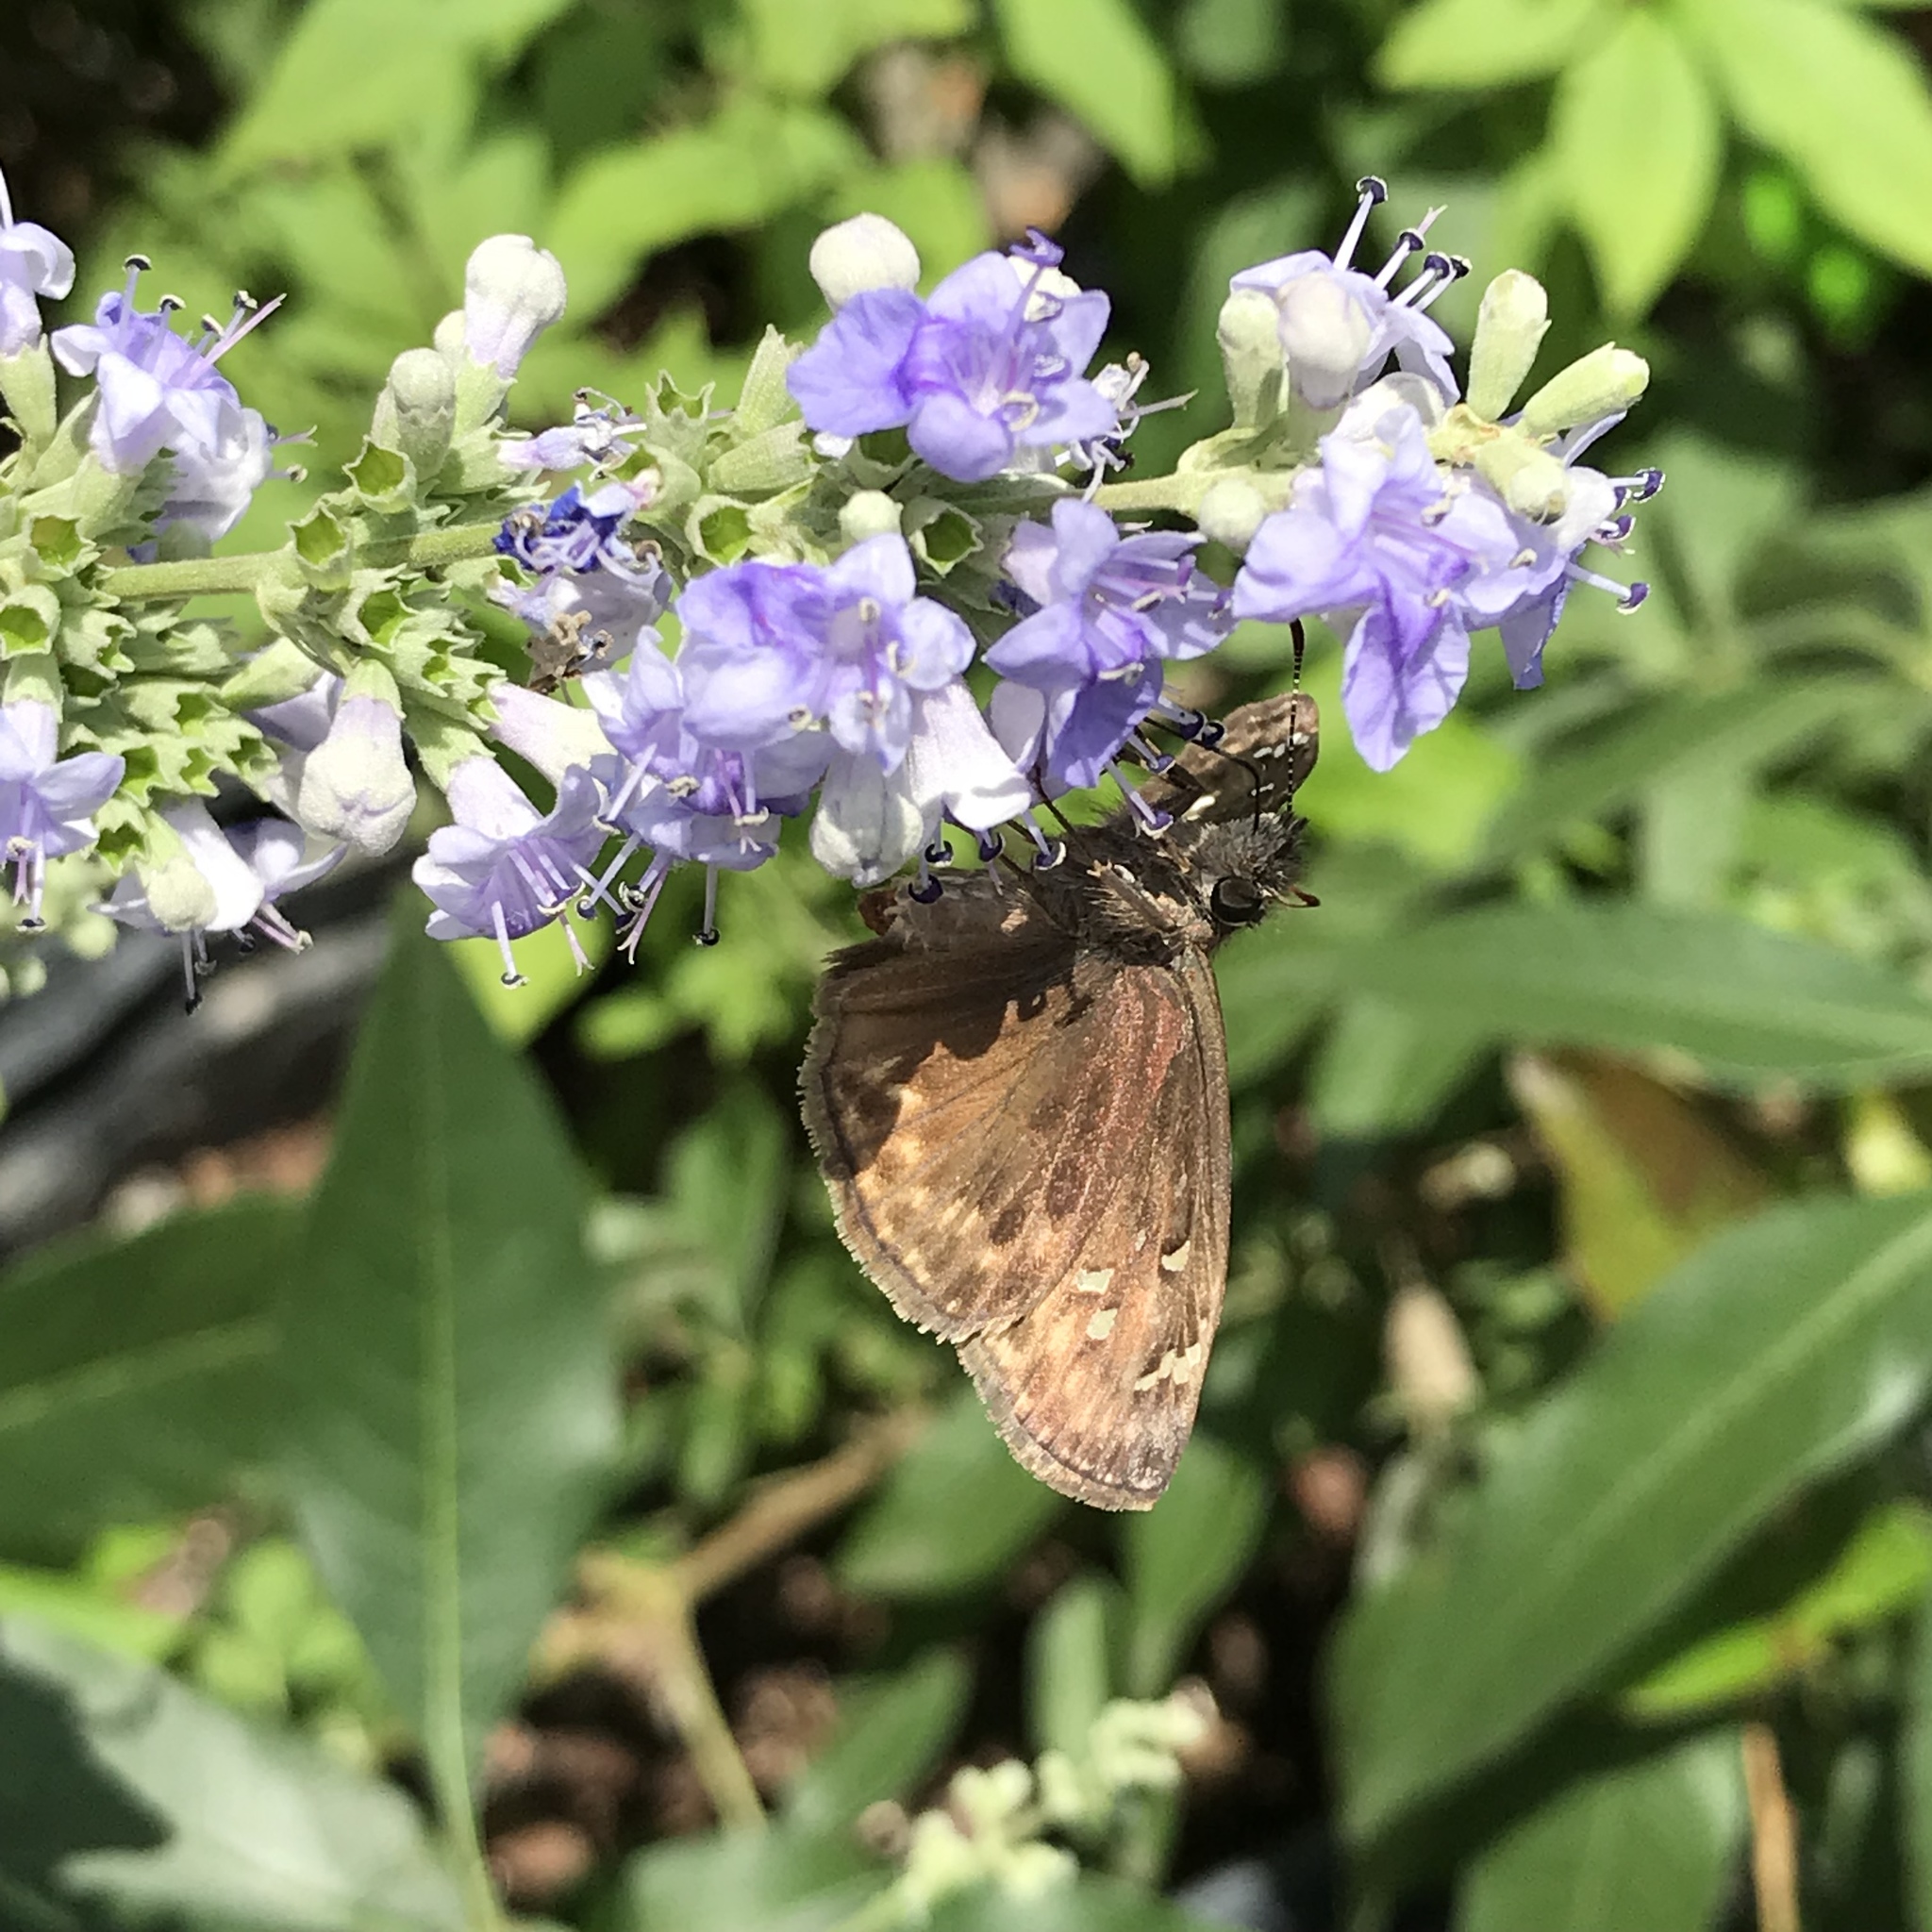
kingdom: Animalia
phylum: Arthropoda
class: Insecta
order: Lepidoptera
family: Hesperiidae
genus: Erynnis
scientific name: Erynnis horatius
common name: Horace's duskywing
